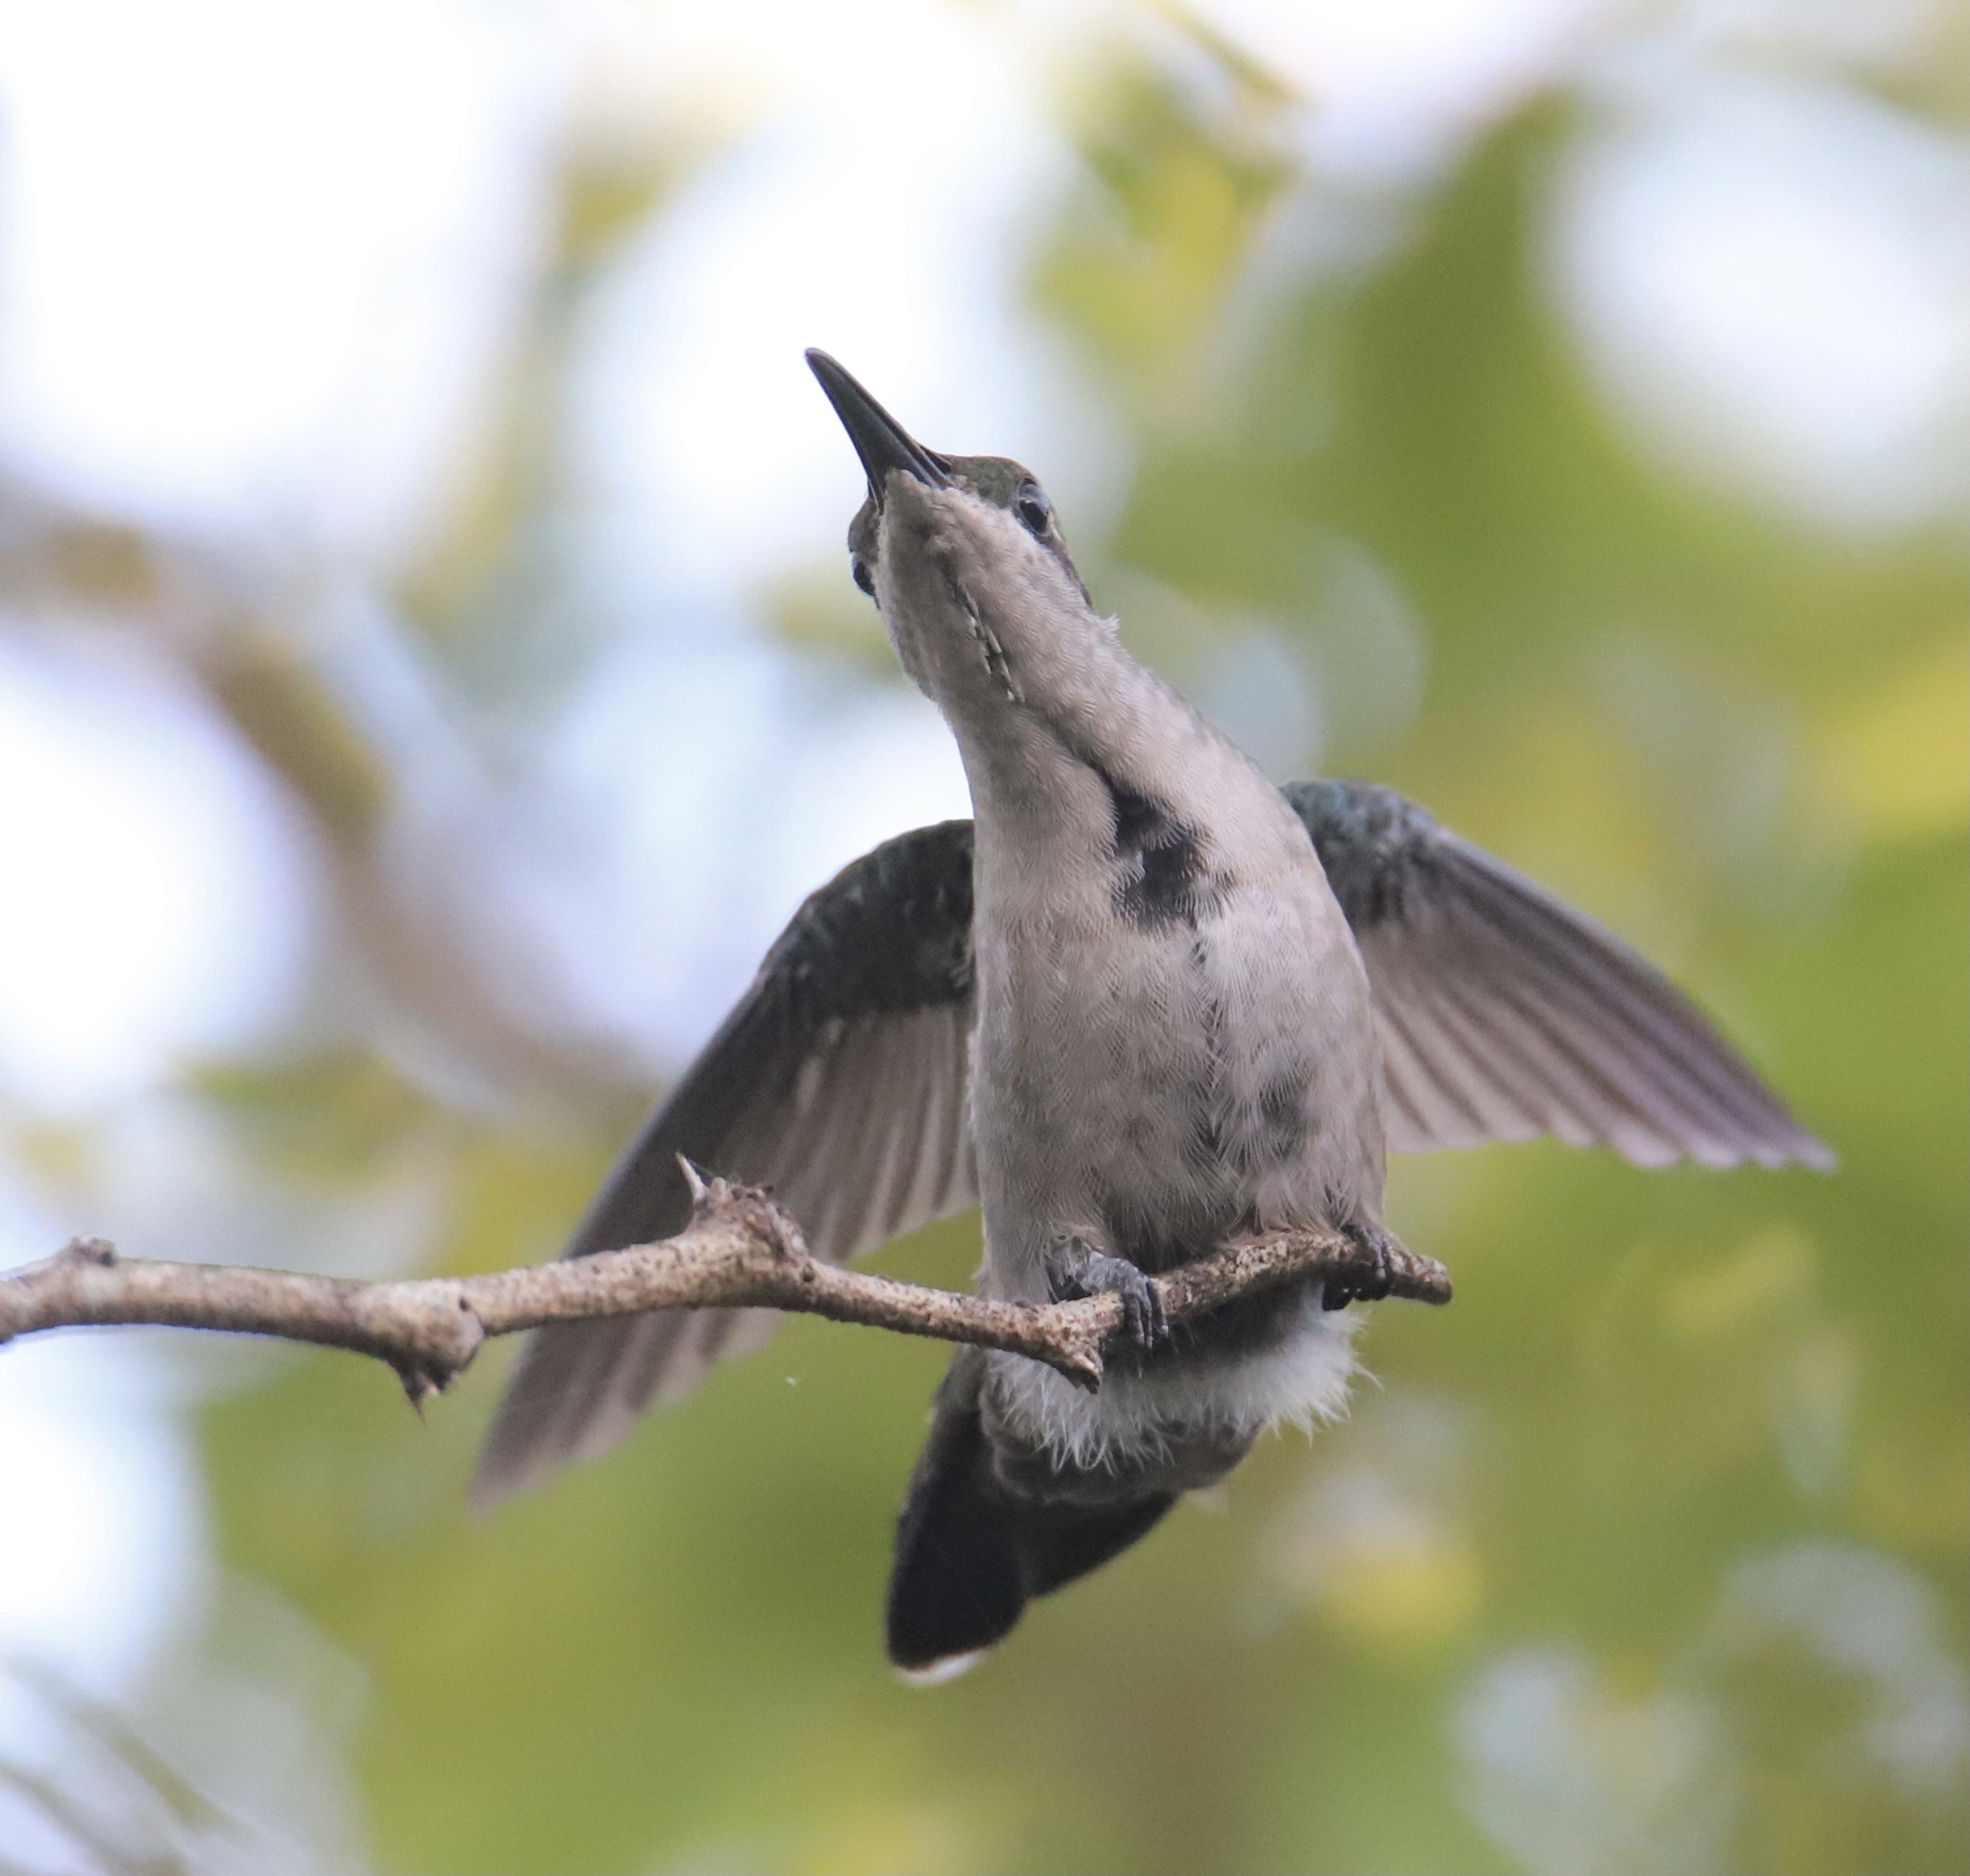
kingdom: Animalia
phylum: Chordata
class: Aves
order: Apodiformes
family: Trochilidae
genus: Anthracothorax
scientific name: Anthracothorax dominicus
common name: Antillean mango
